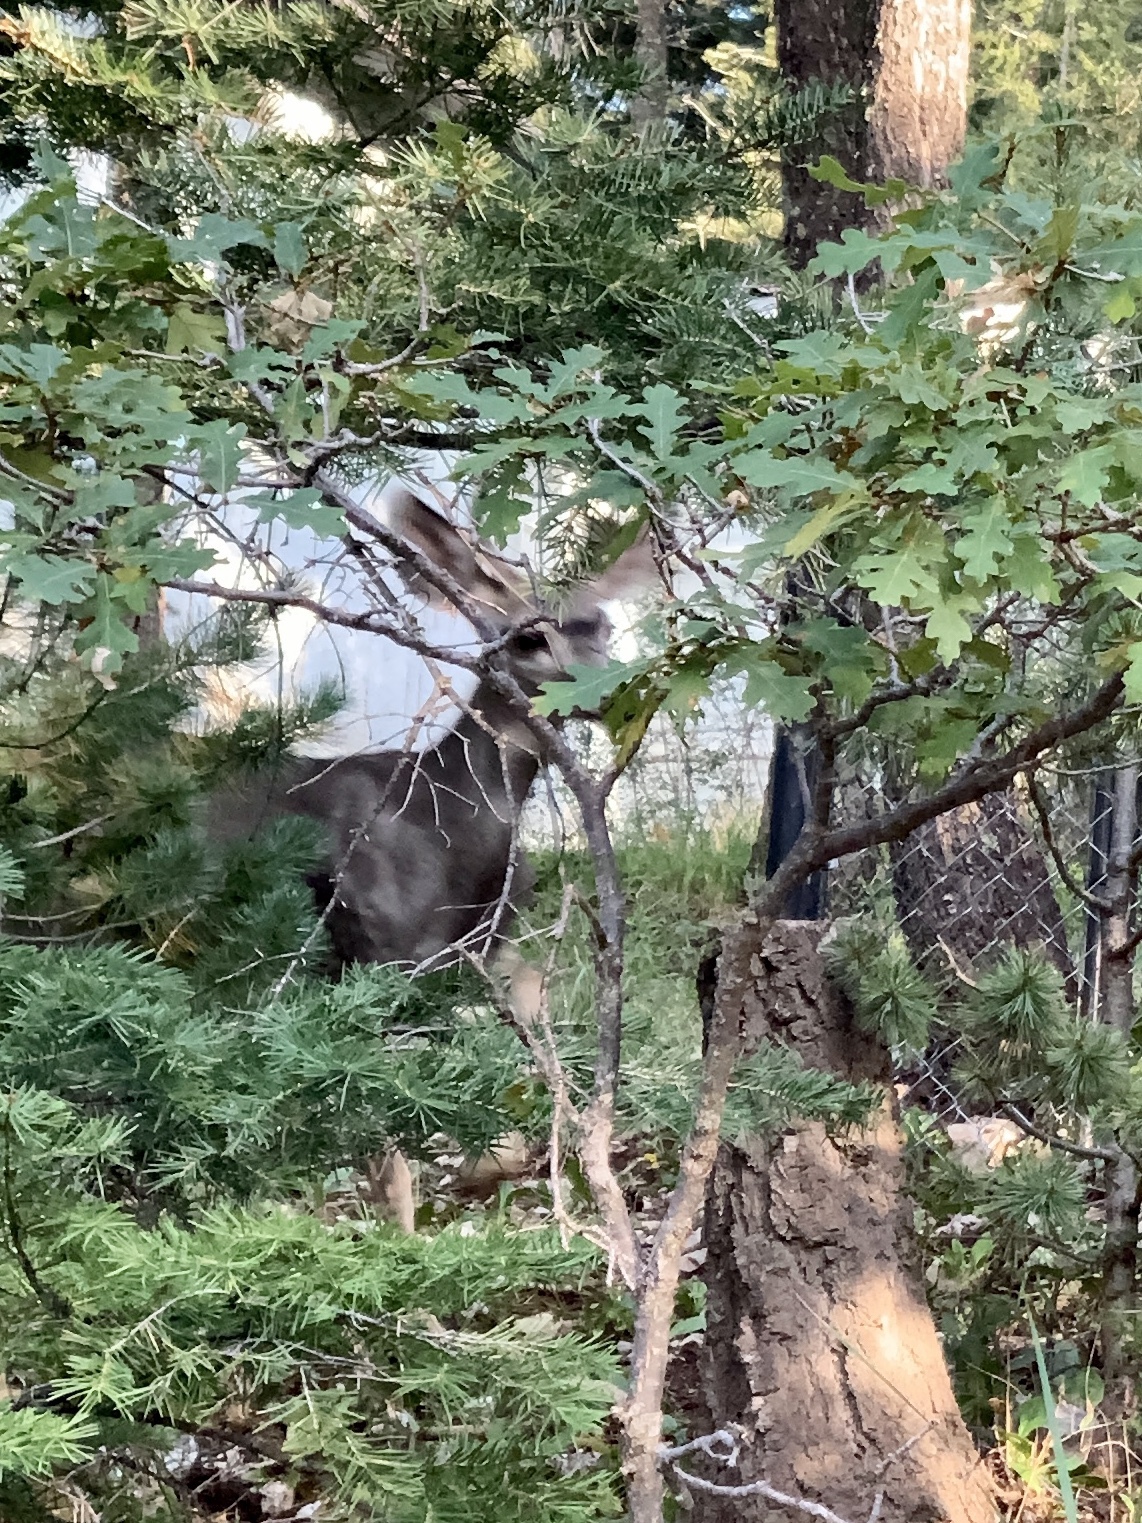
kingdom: Animalia
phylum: Chordata
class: Mammalia
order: Artiodactyla
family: Cervidae
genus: Odocoileus
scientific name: Odocoileus hemionus
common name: Mule deer
